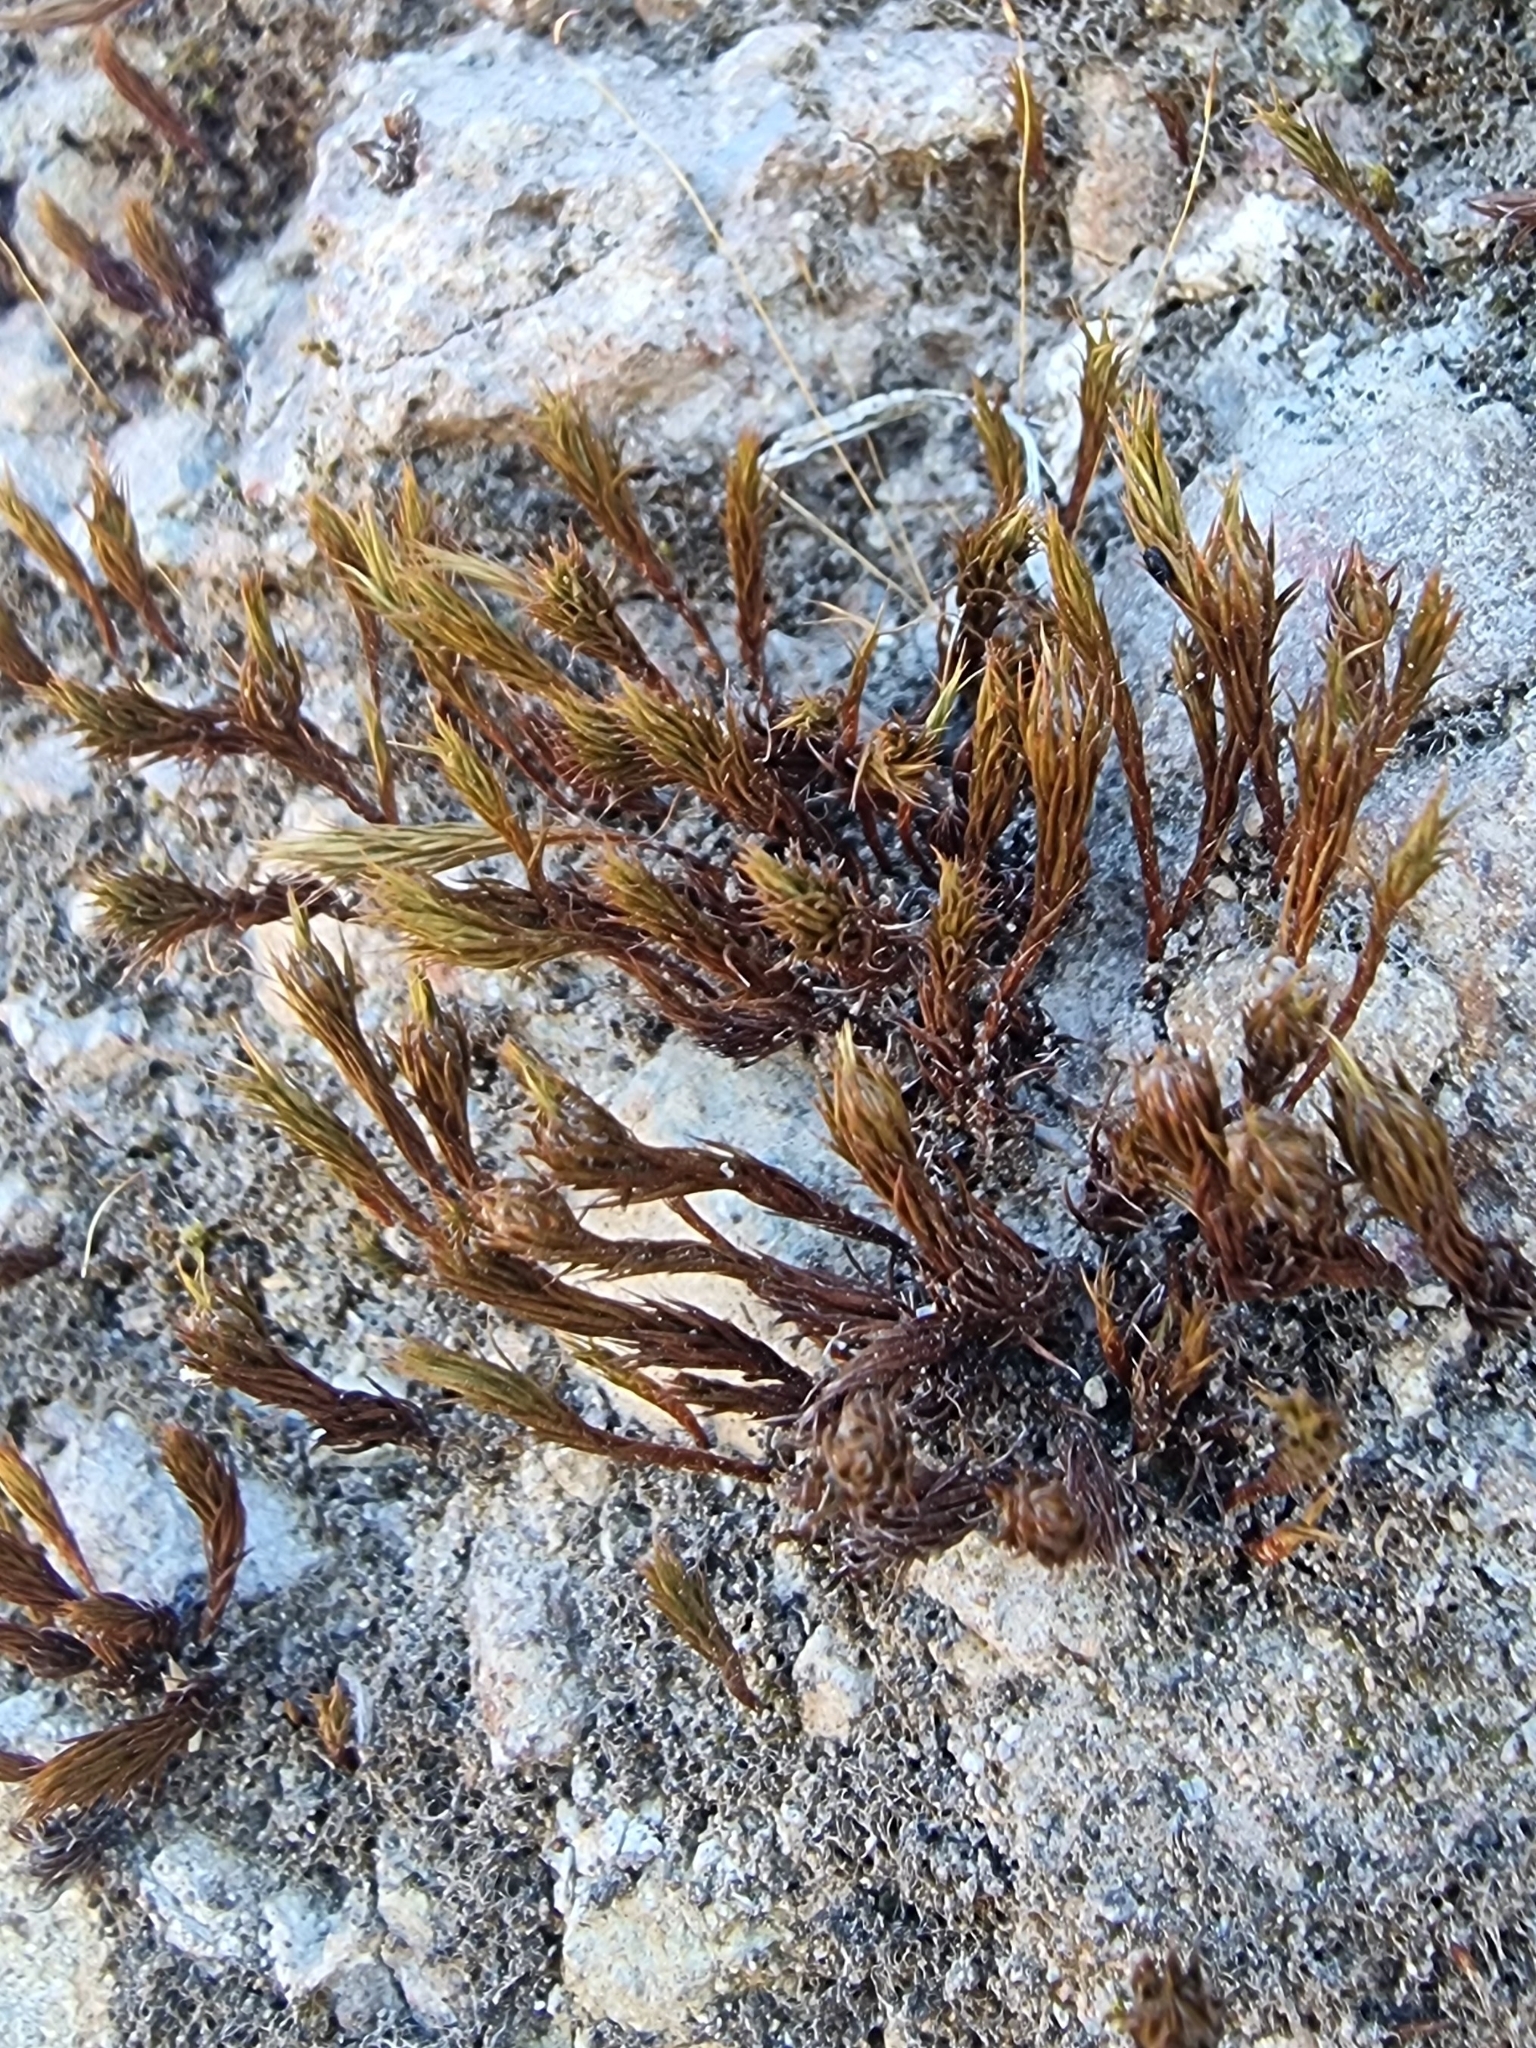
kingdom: Plantae
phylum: Bryophyta
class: Polytrichopsida
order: Polytrichales
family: Polytrichaceae
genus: Polytrichum
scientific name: Polytrichum juniperinum
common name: Juniper haircap moss
